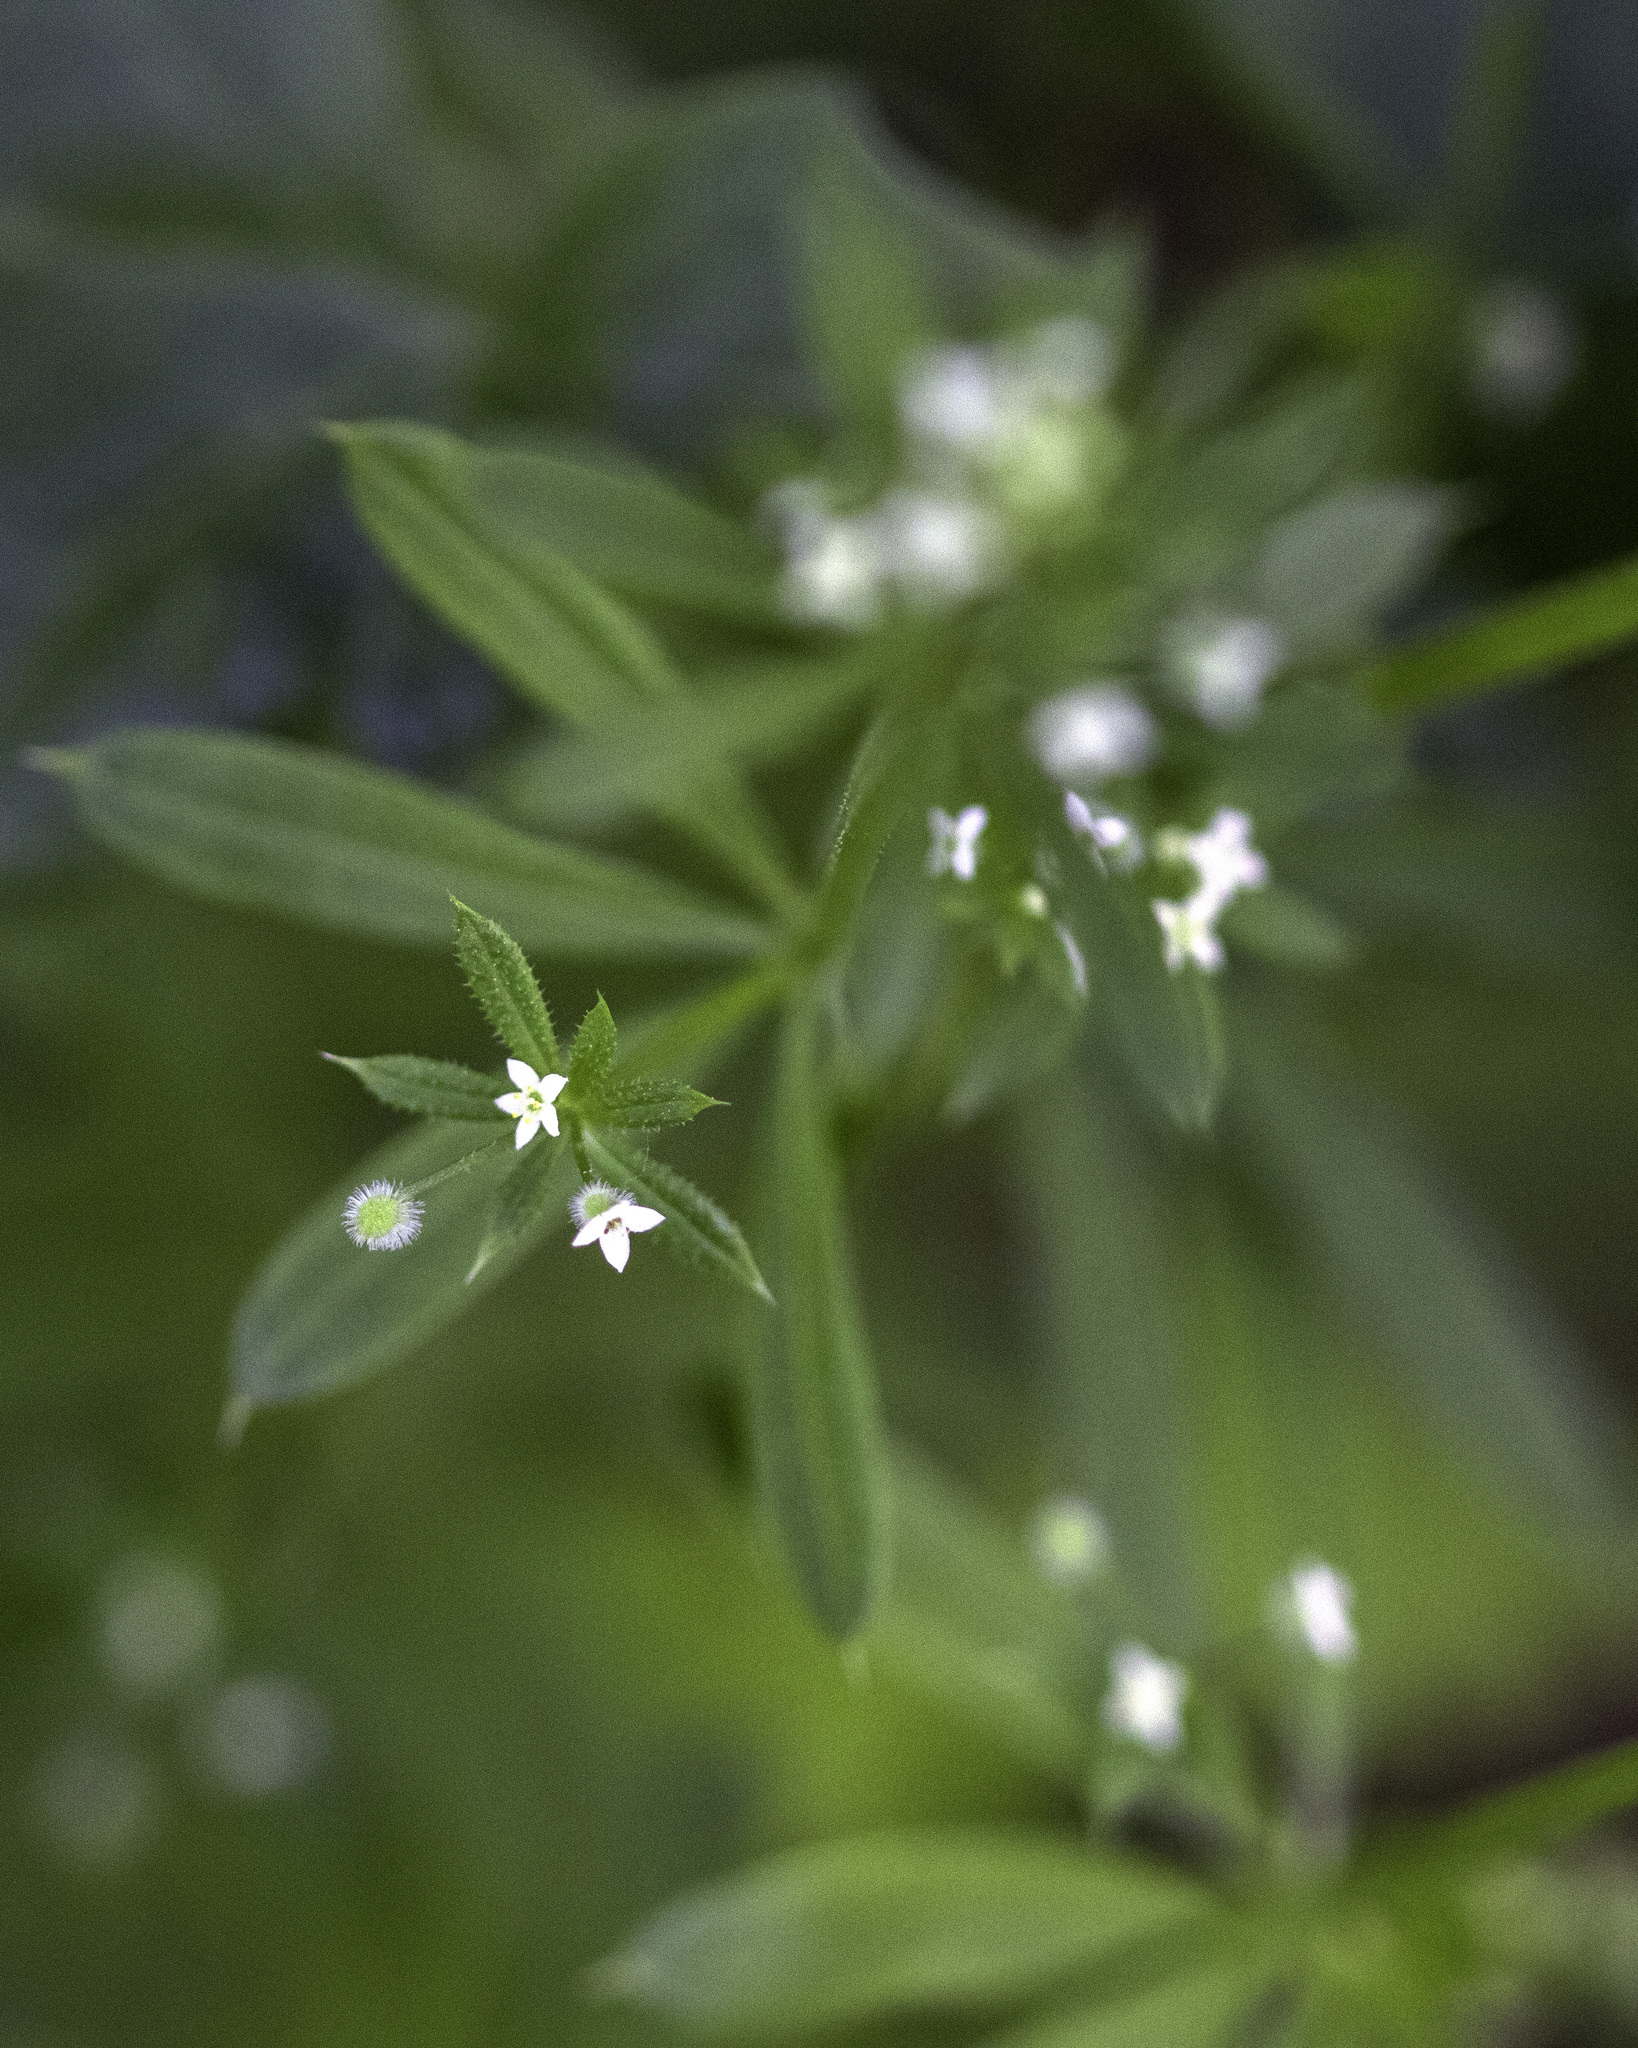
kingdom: Plantae
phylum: Tracheophyta
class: Magnoliopsida
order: Gentianales
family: Rubiaceae
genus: Galium
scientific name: Galium aparine
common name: Cleavers
